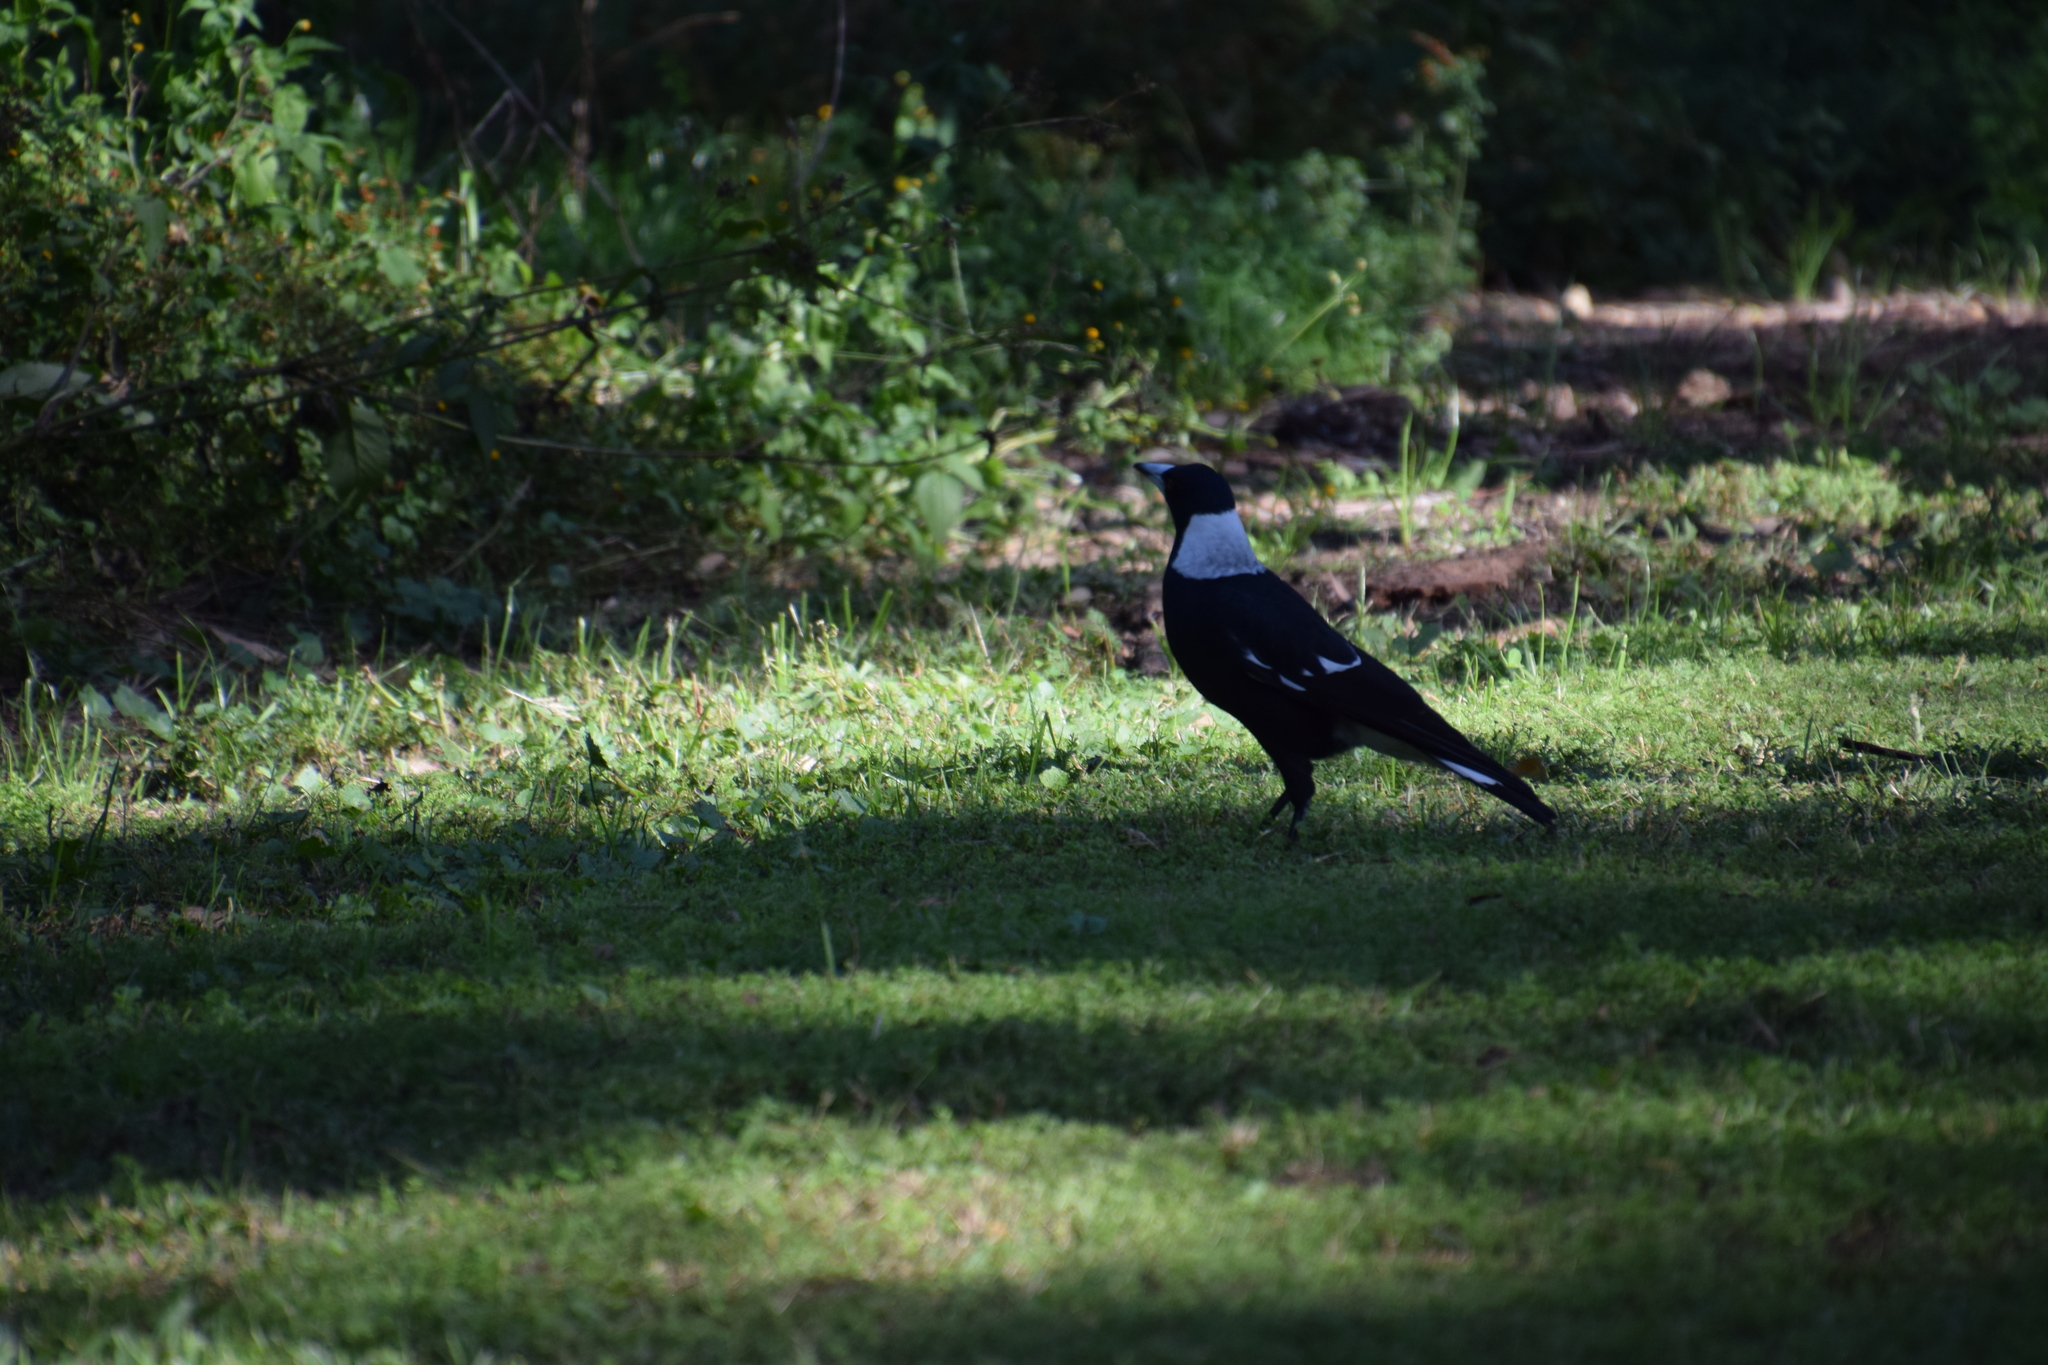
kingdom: Animalia
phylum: Chordata
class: Aves
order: Passeriformes
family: Cracticidae
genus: Gymnorhina
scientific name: Gymnorhina tibicen
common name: Australian magpie
